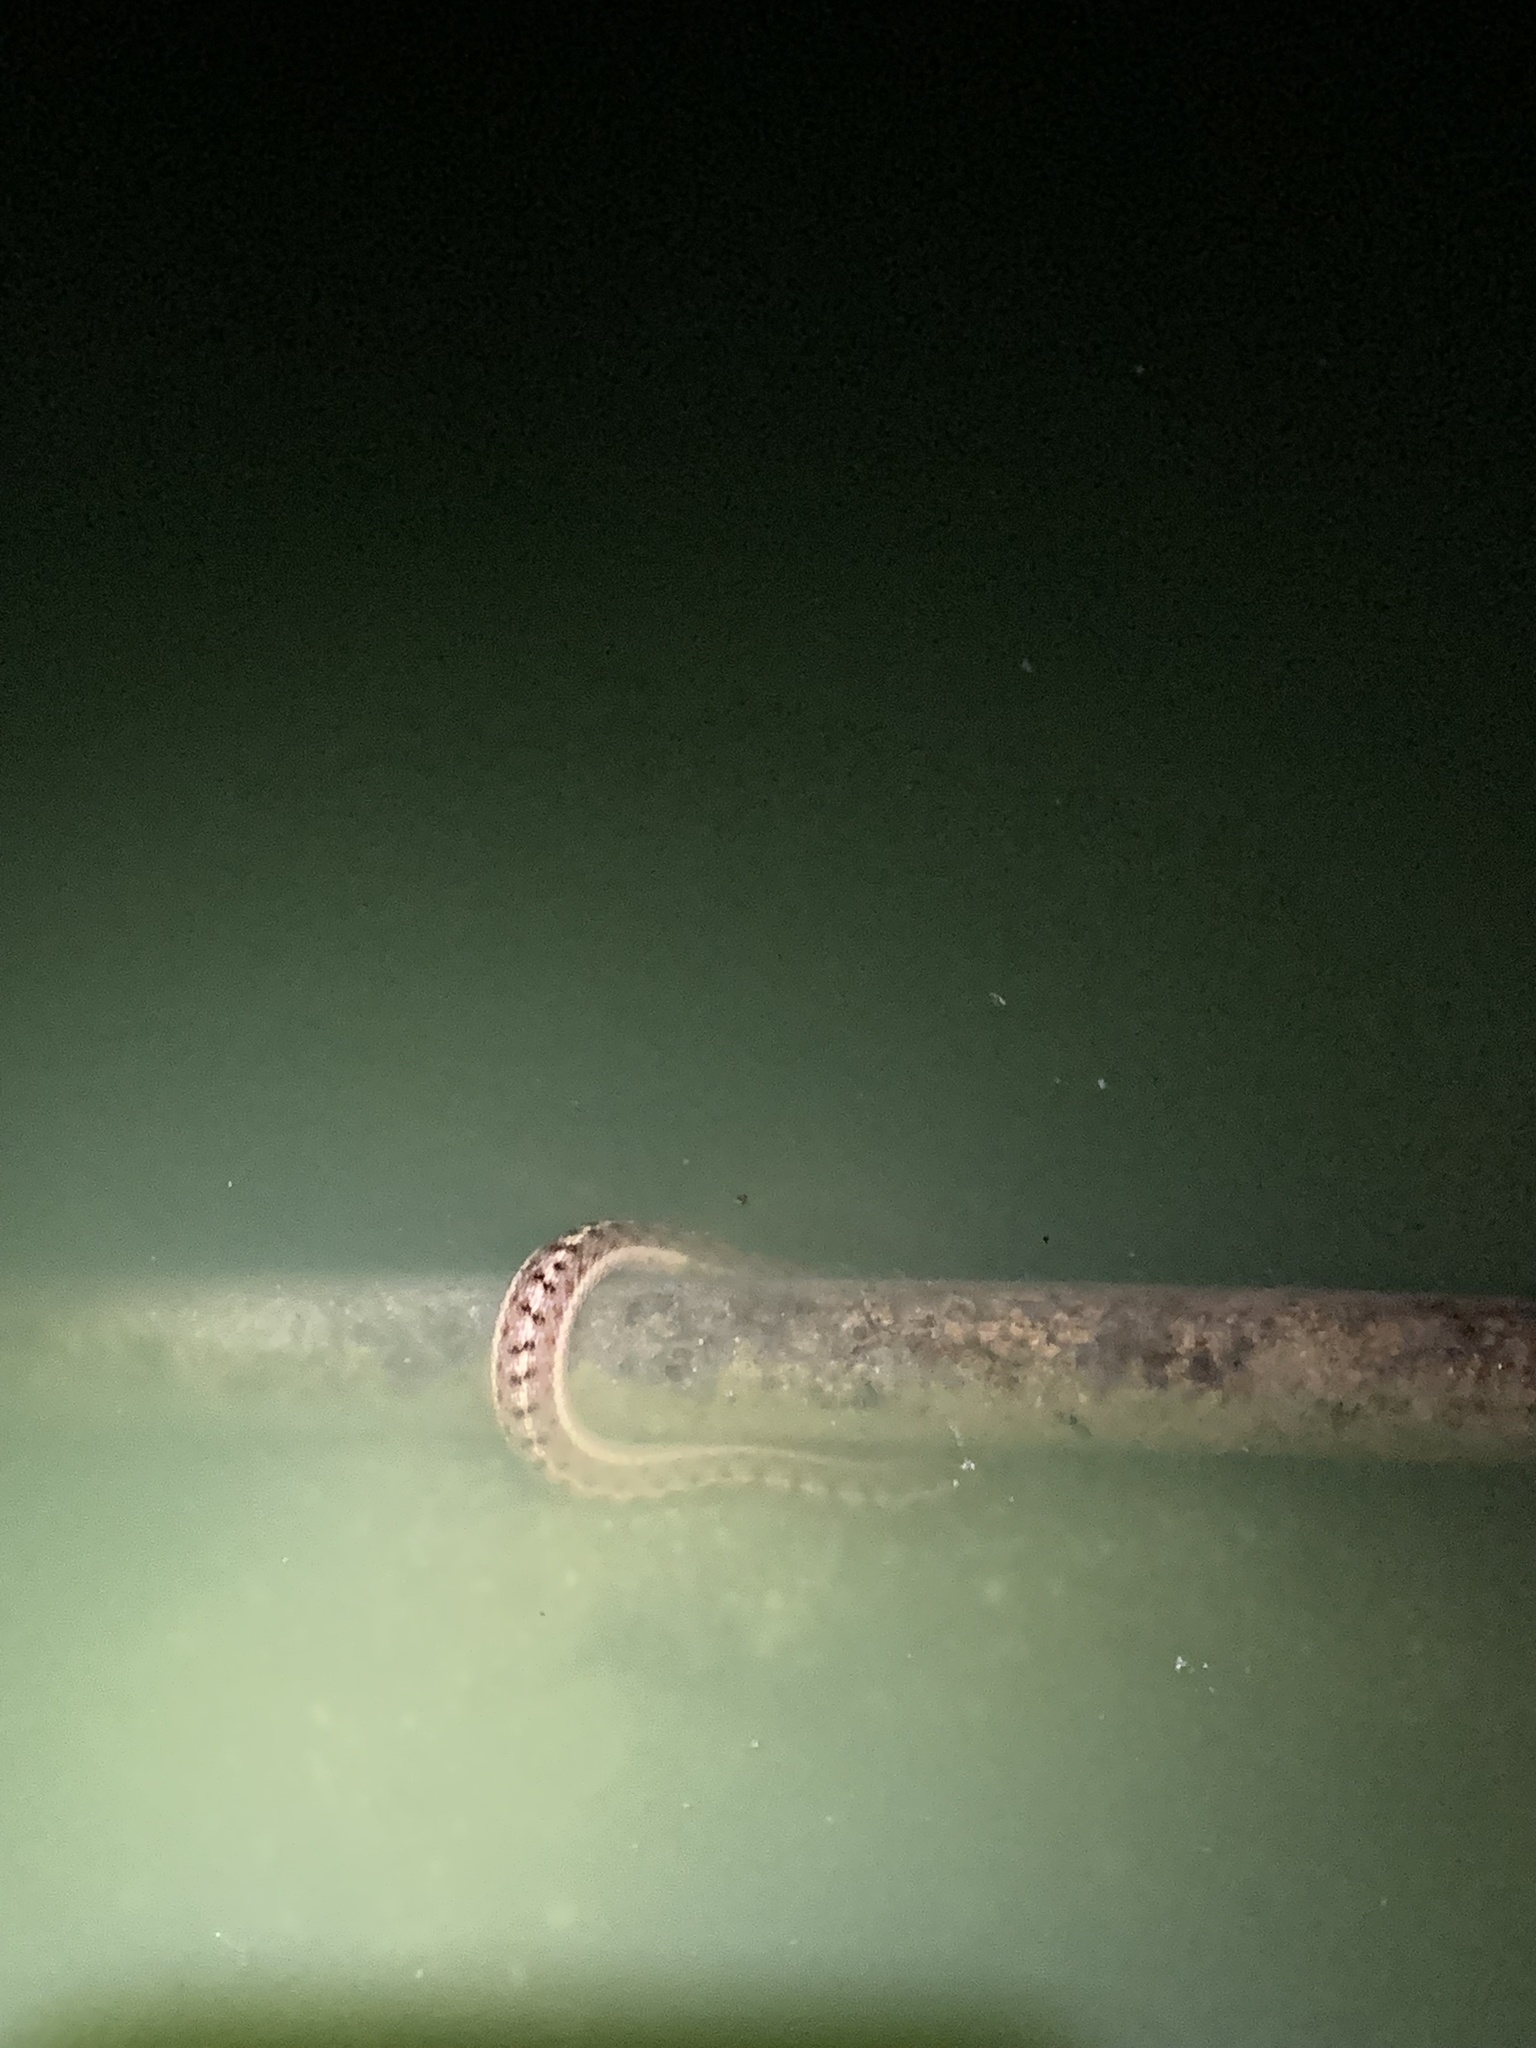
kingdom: Animalia
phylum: Chordata
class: Squamata
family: Colubridae
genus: Thamnophis
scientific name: Thamnophis elegans
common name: Western terrestrial garter snake
